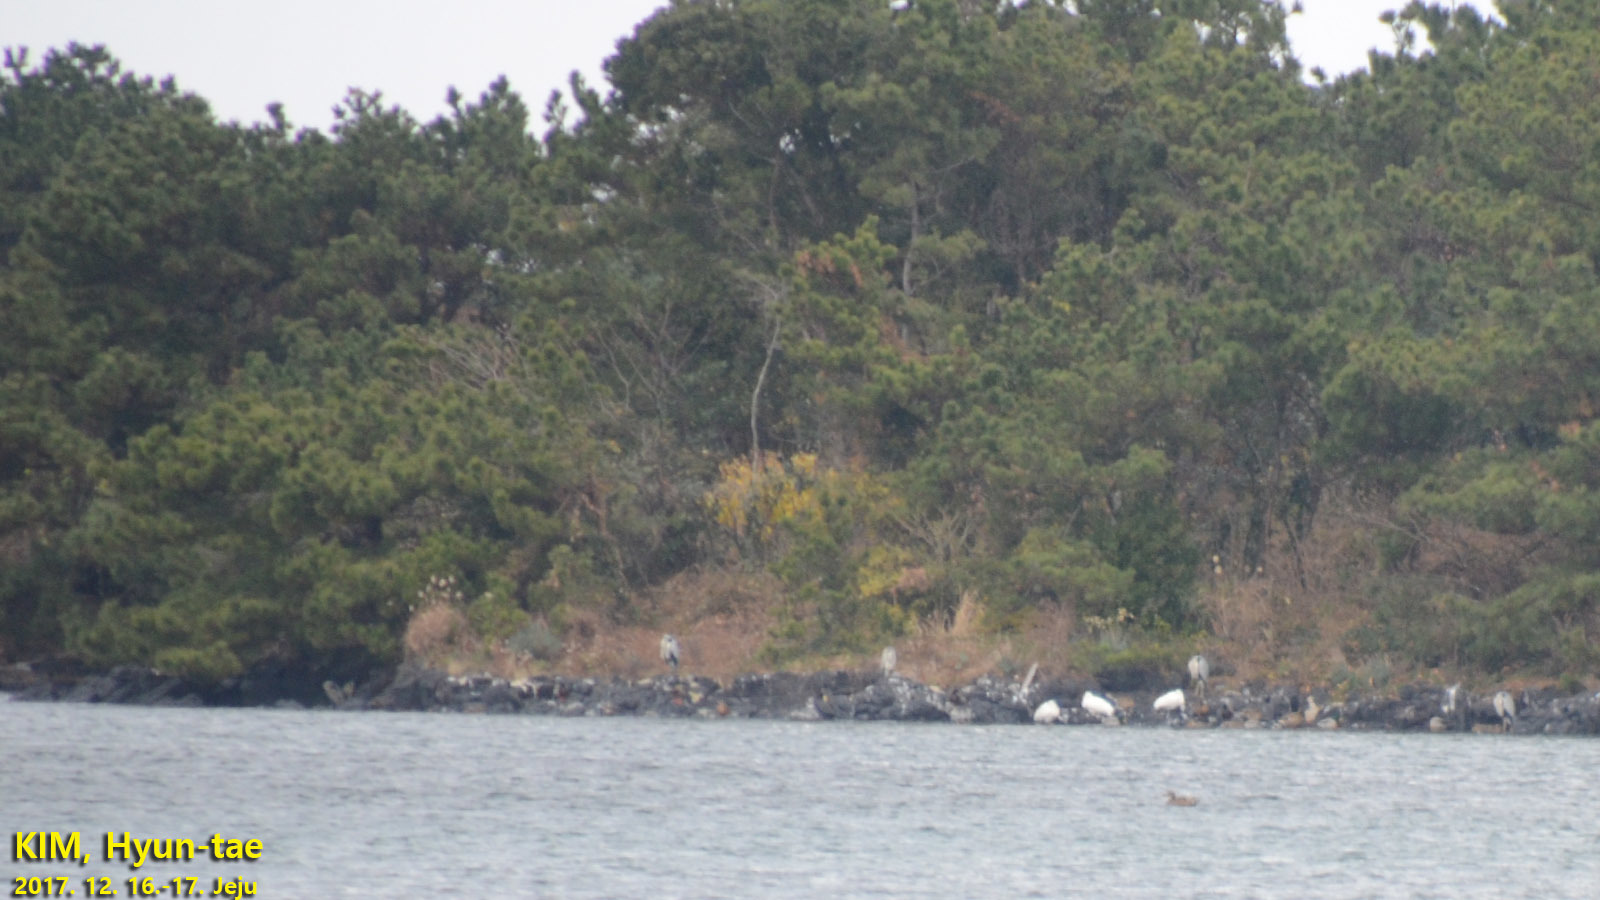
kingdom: Animalia
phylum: Chordata
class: Aves
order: Pelecaniformes
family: Threskiornithidae
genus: Platalea
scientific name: Platalea minor
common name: Black-faced spoonbill
